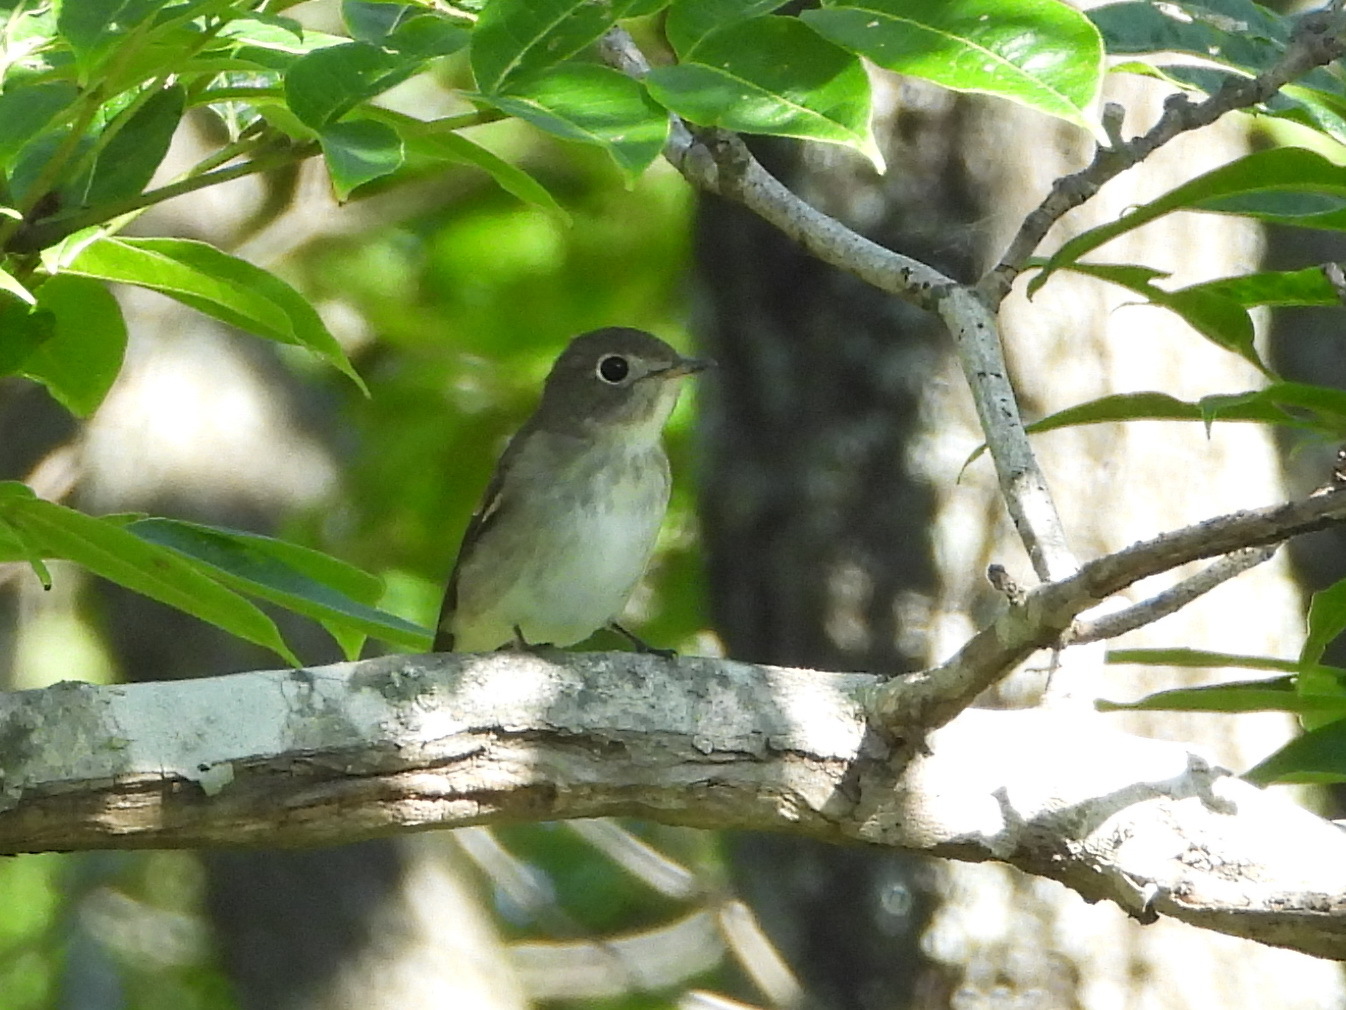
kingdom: Animalia
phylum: Chordata
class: Aves
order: Passeriformes
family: Muscicapidae
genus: Muscicapa
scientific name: Muscicapa latirostris
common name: Asian brown flycatcher
